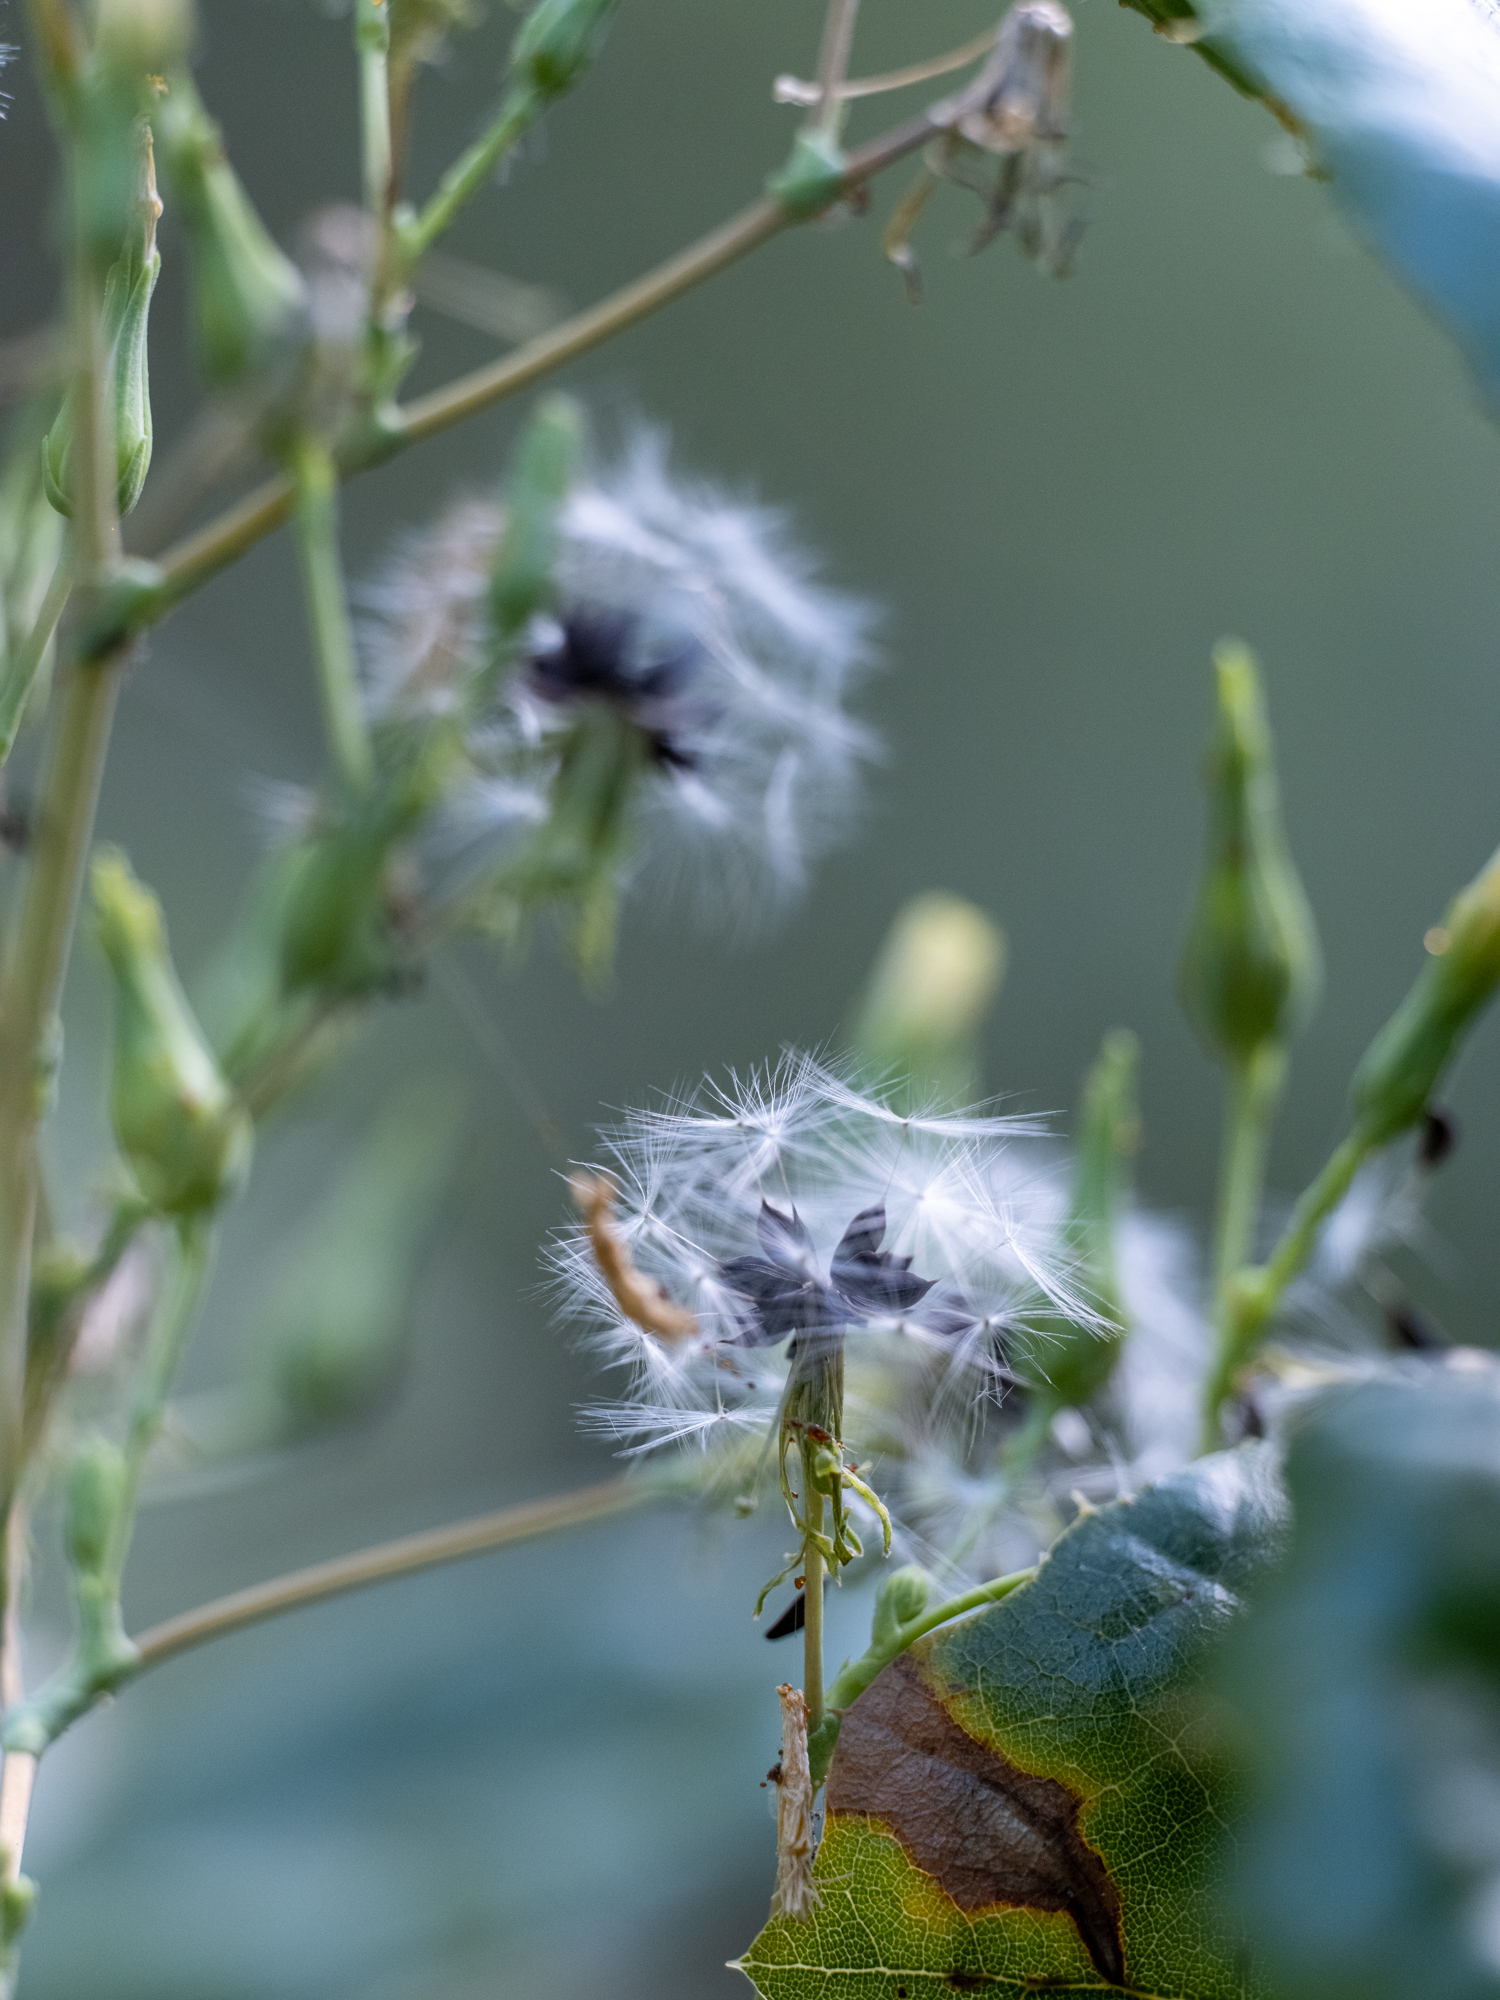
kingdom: Plantae
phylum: Tracheophyta
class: Magnoliopsida
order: Asterales
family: Asteraceae
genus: Lactuca
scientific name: Lactuca virosa
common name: Great lettuce
